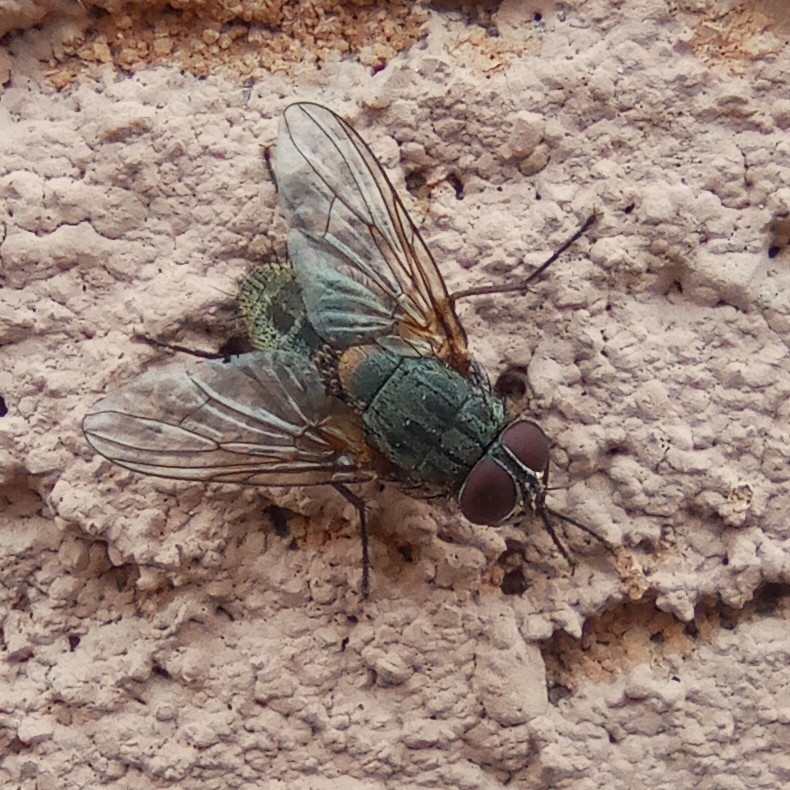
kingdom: Animalia
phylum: Arthropoda
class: Insecta
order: Diptera
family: Muscidae
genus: Muscina
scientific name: Muscina stabulans
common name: False stable fly
